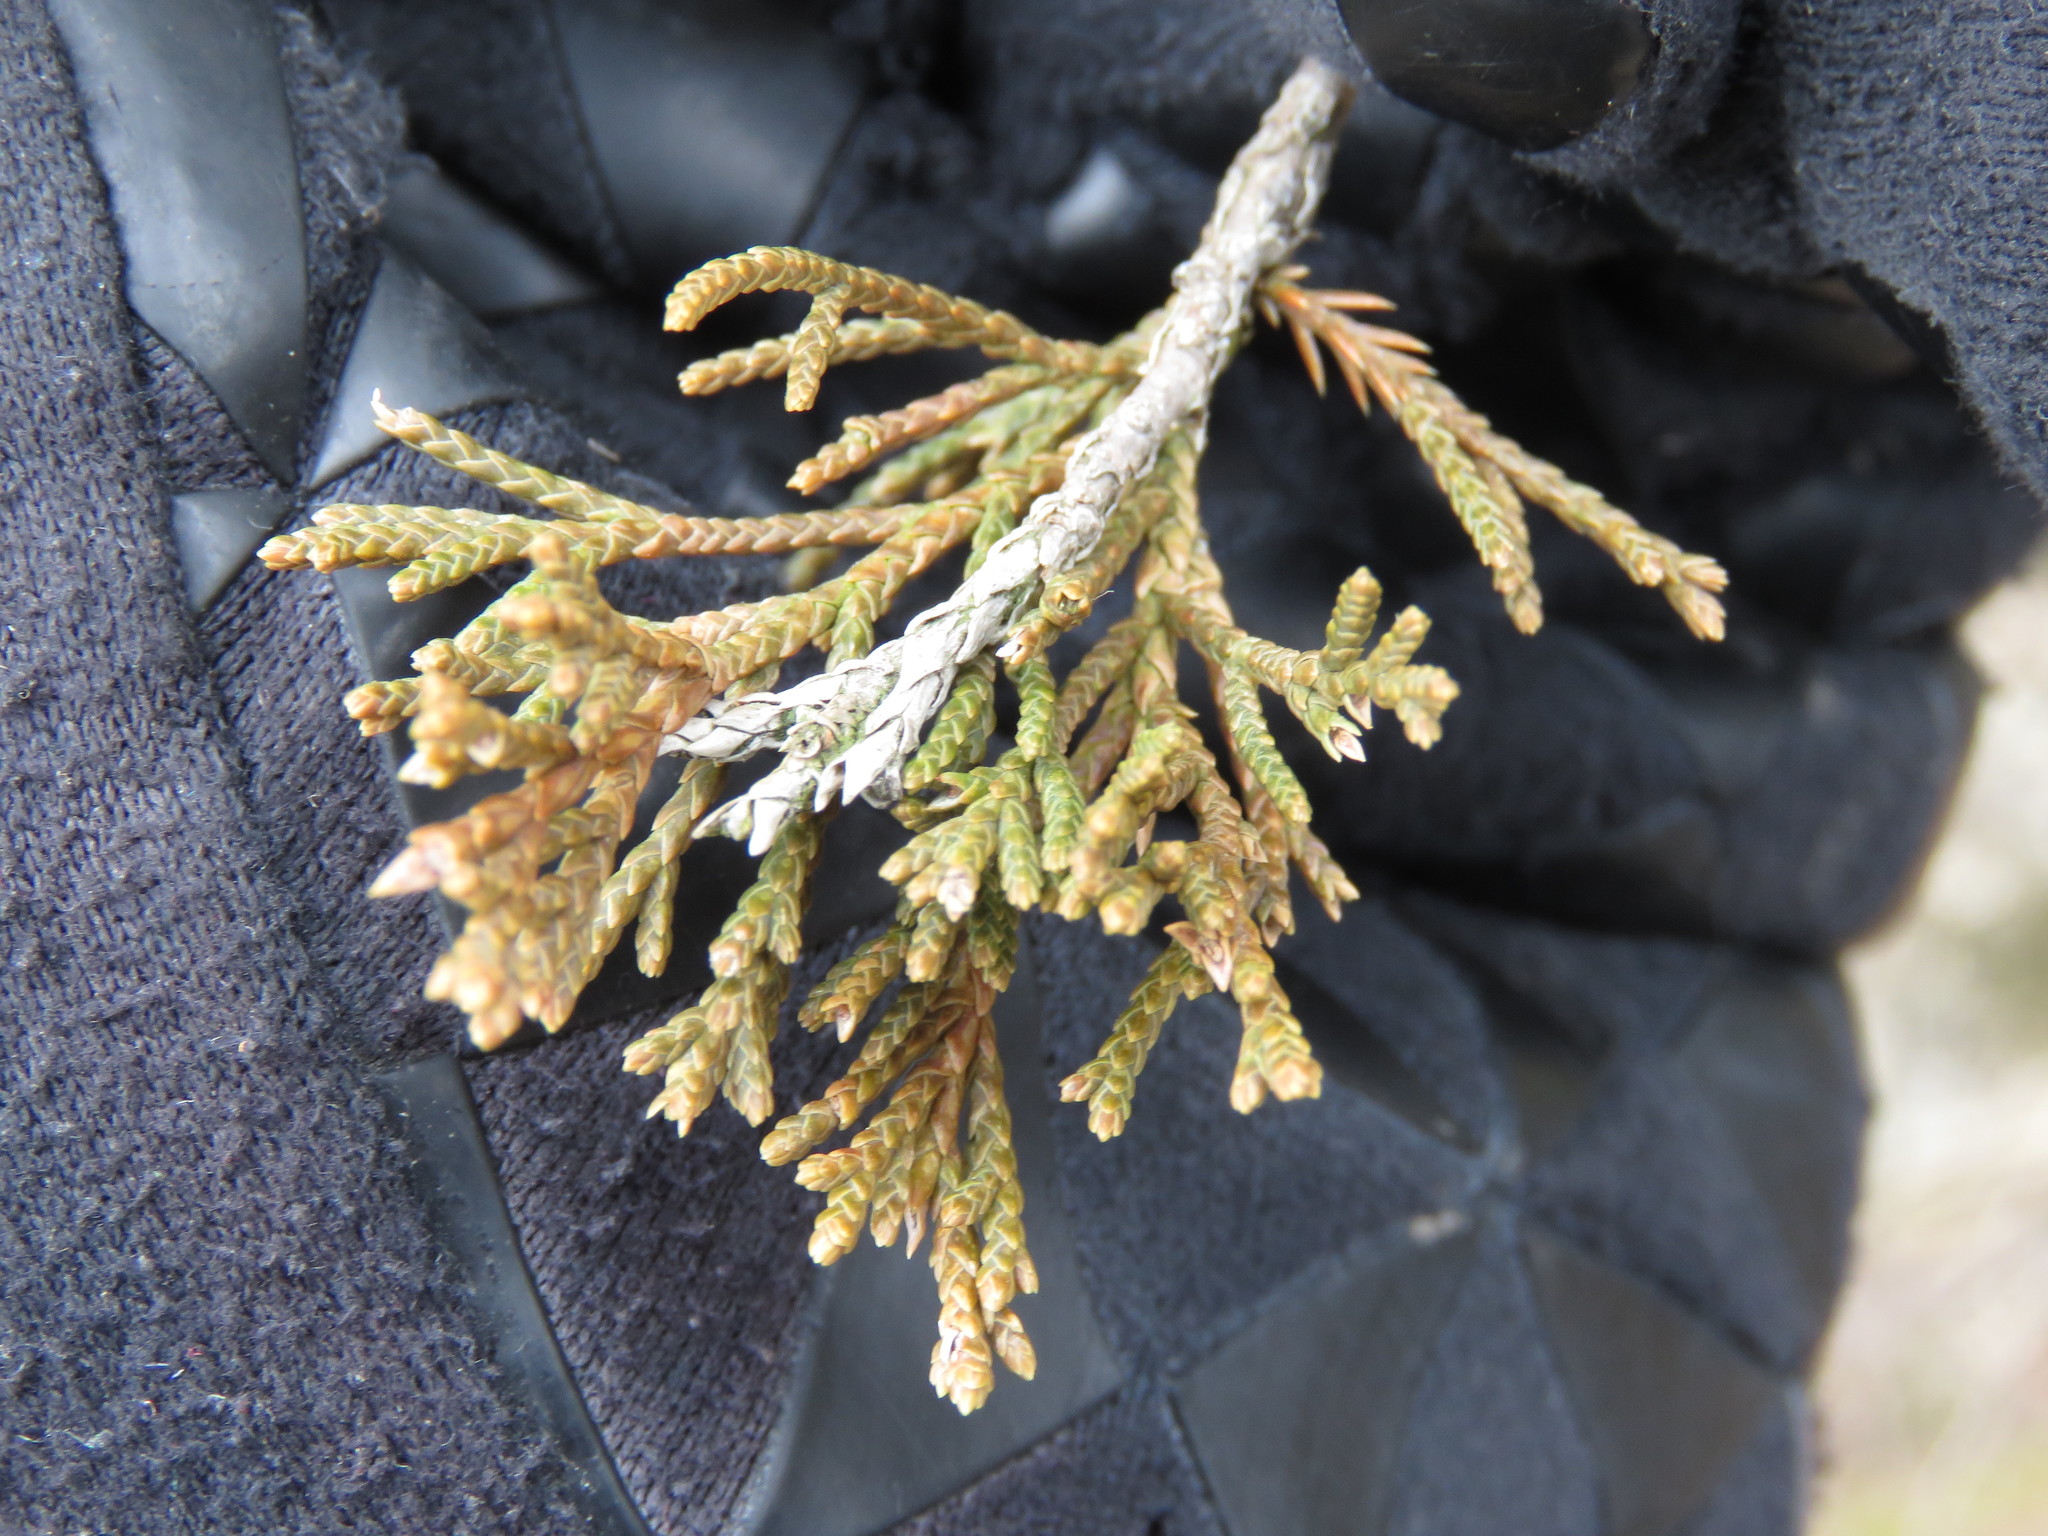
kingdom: Plantae
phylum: Tracheophyta
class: Pinopsida
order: Pinales
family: Cupressaceae
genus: Juniperus
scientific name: Juniperus virginiana
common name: Red juniper
